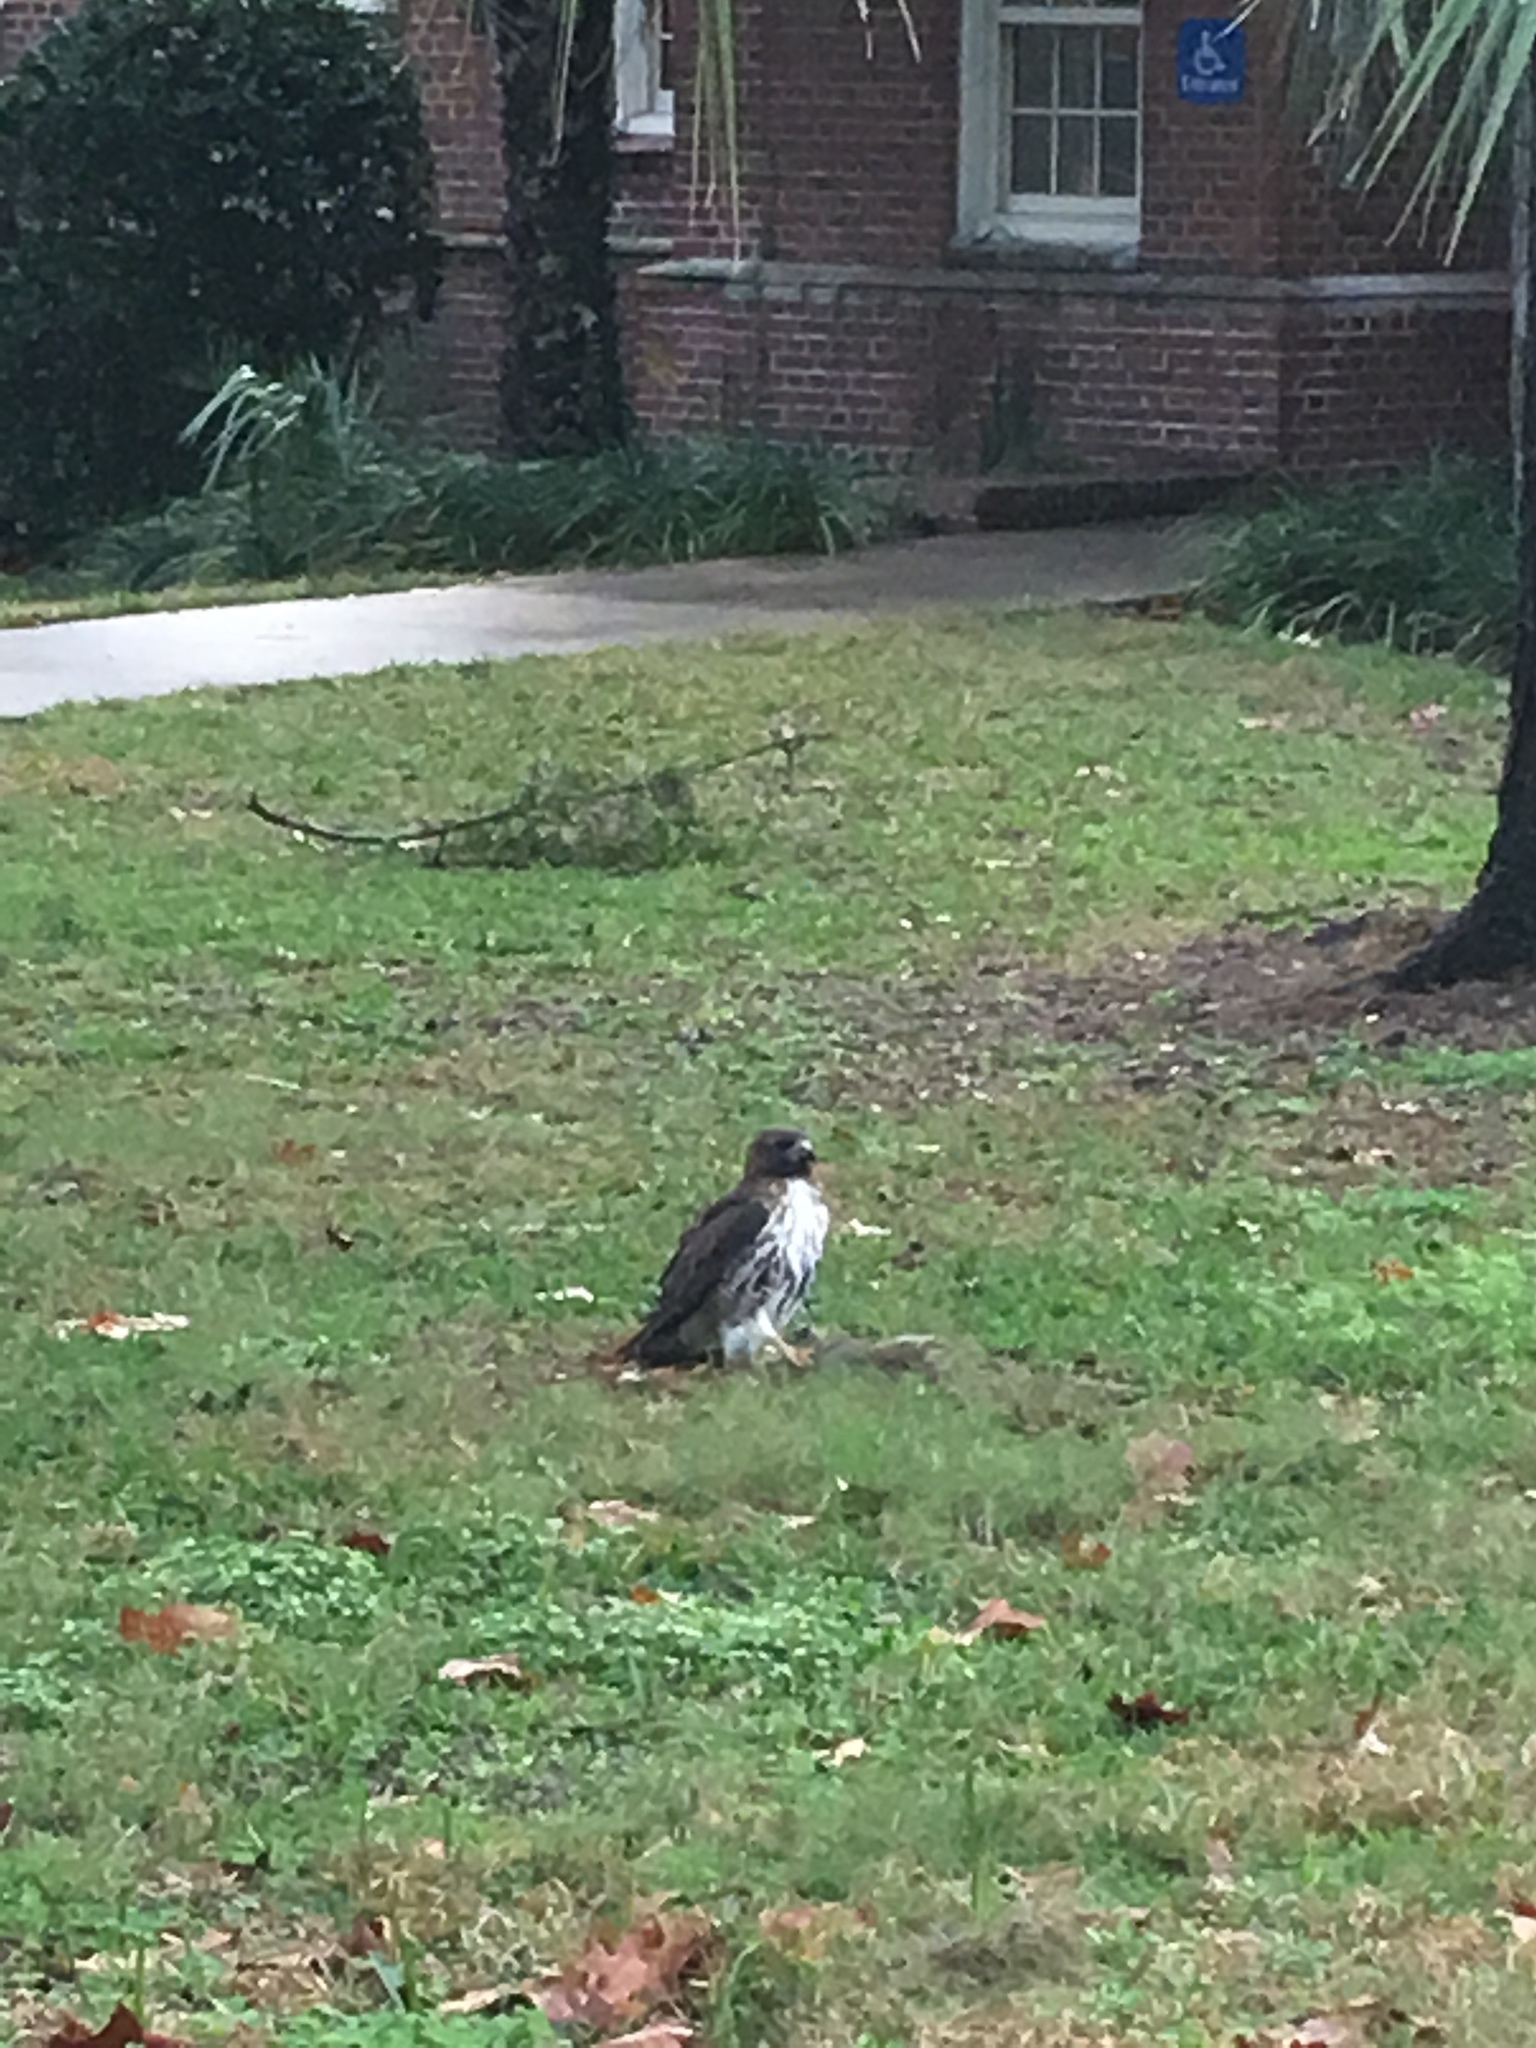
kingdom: Animalia
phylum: Chordata
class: Aves
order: Accipitriformes
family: Accipitridae
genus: Buteo
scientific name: Buteo jamaicensis
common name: Red-tailed hawk
